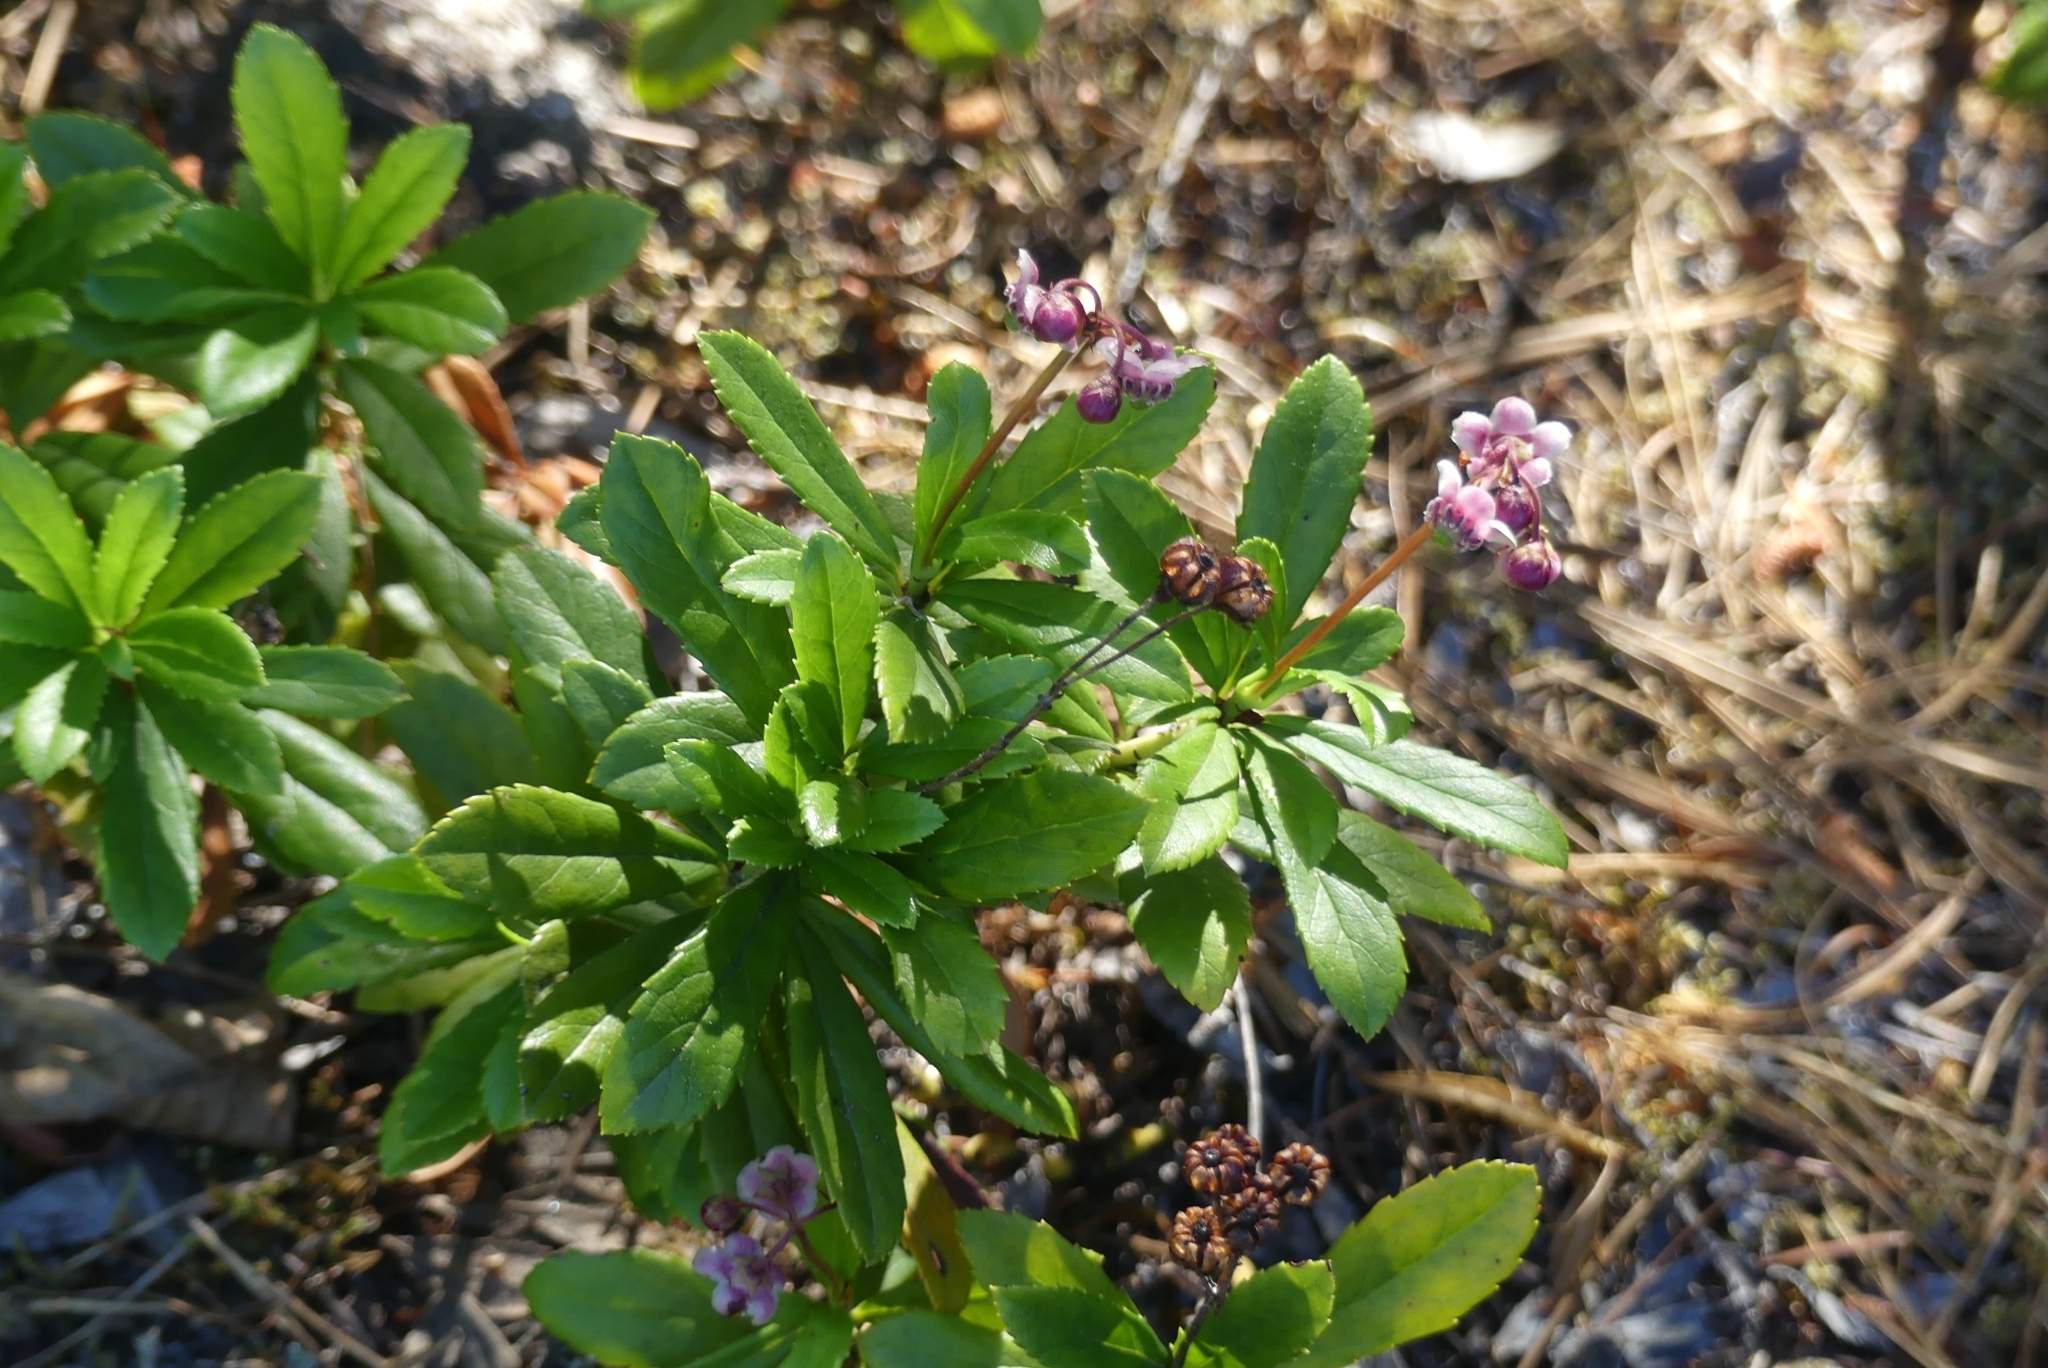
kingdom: Plantae
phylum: Tracheophyta
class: Magnoliopsida
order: Ericales
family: Ericaceae
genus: Chimaphila
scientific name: Chimaphila umbellata
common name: Pipsissewa
